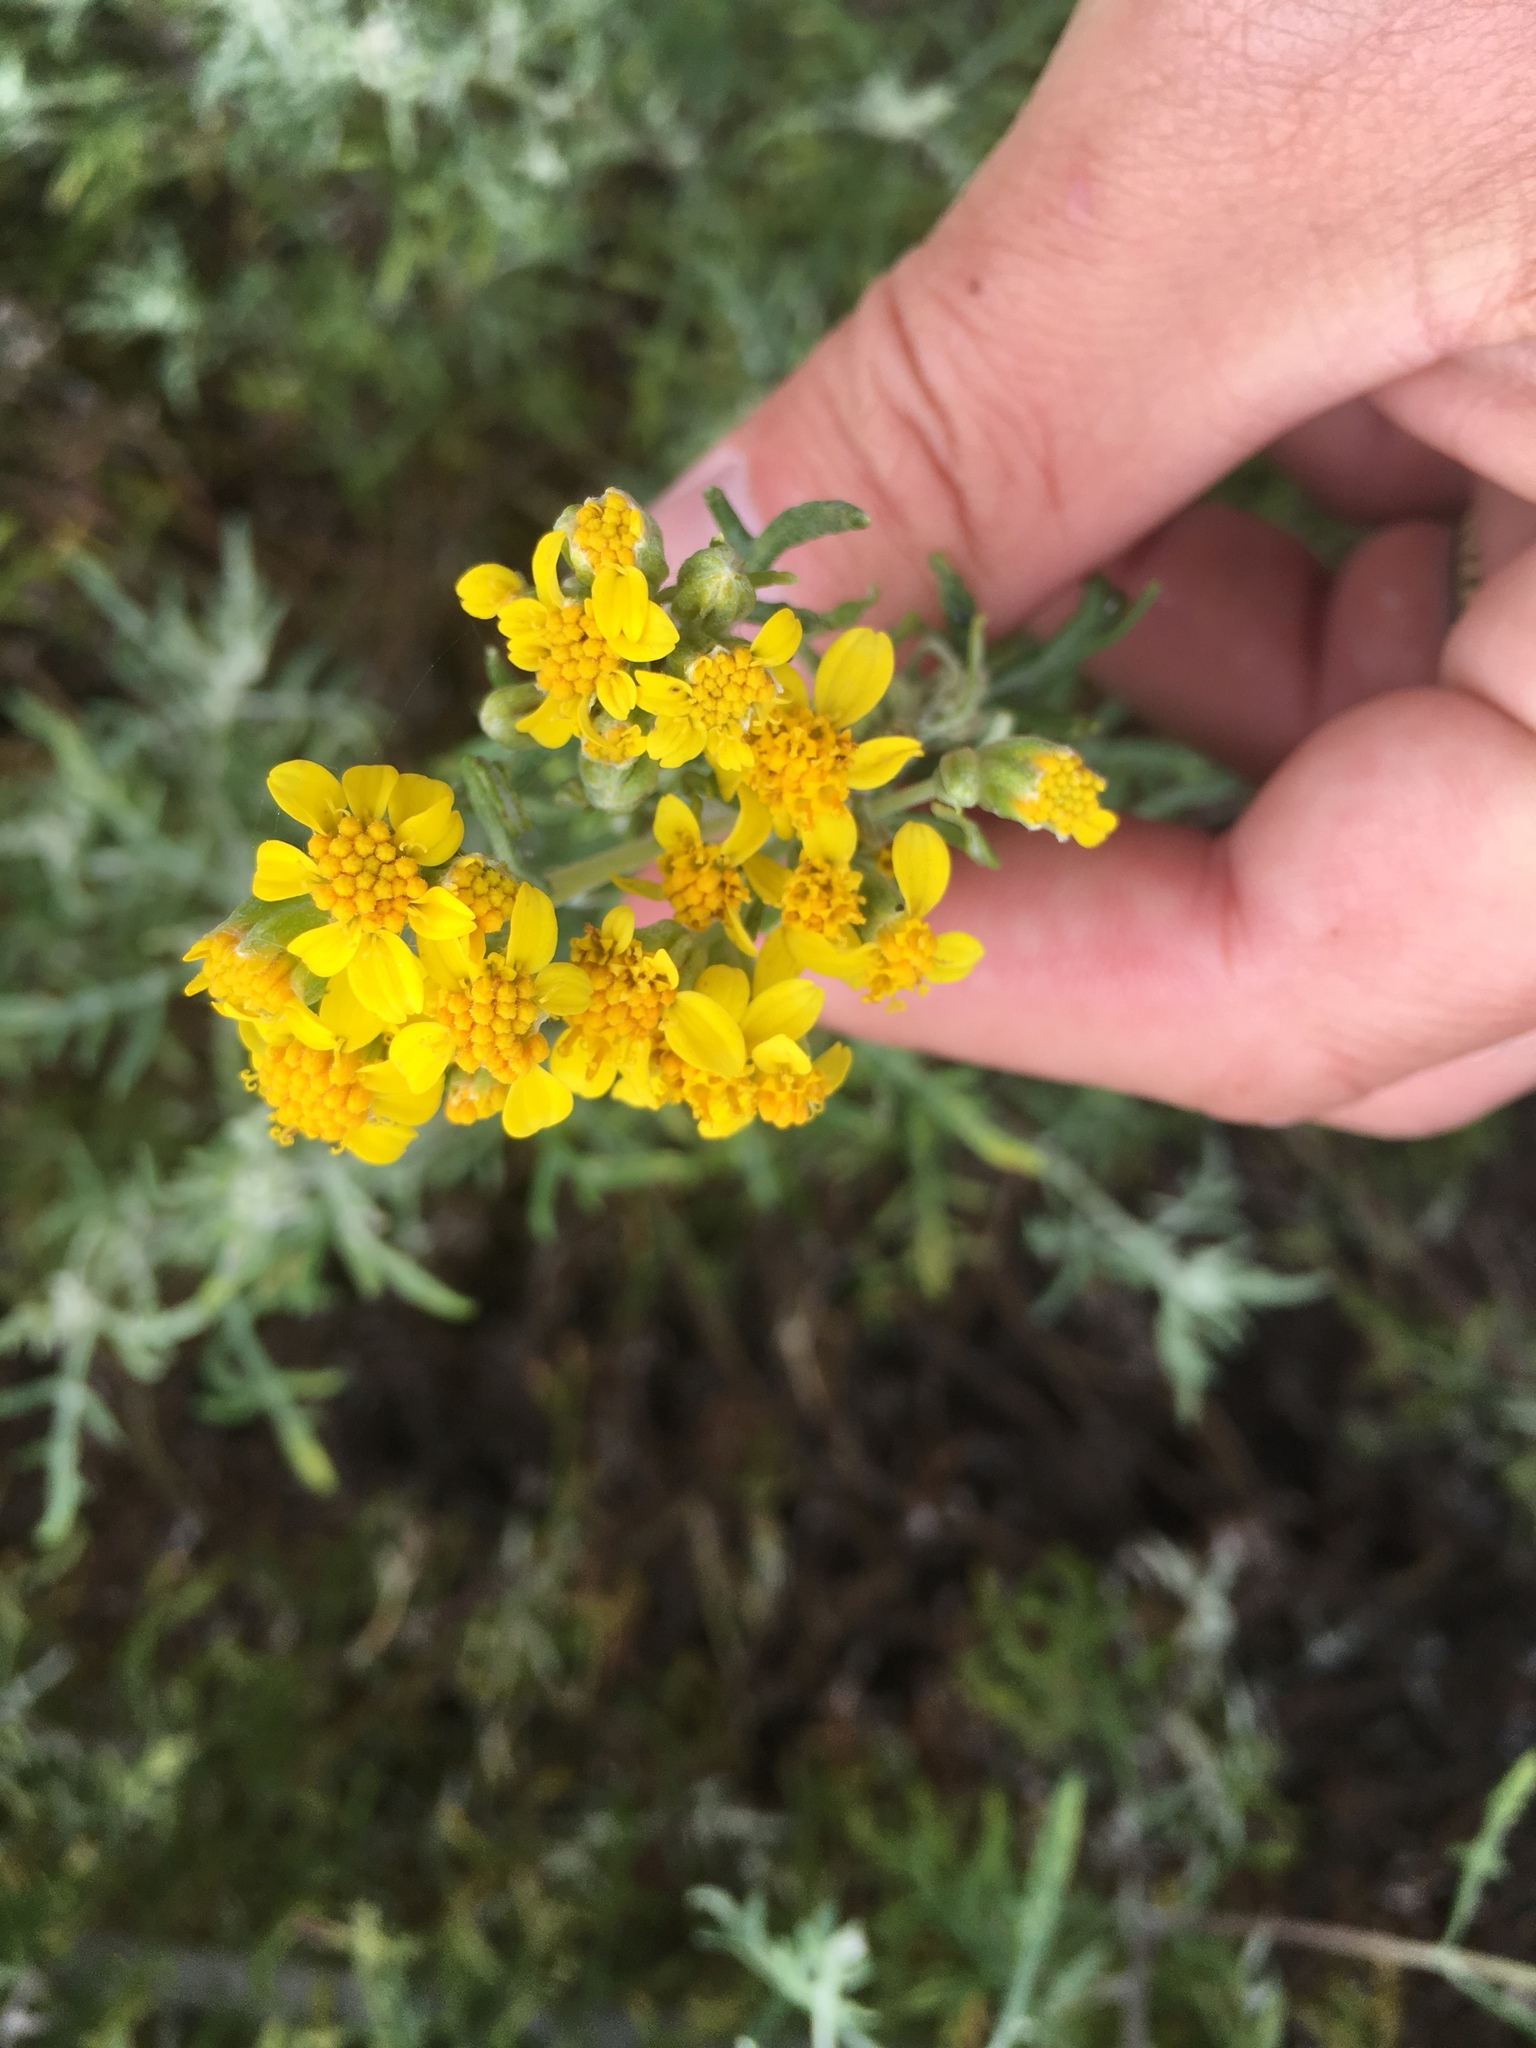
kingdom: Plantae
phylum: Tracheophyta
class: Magnoliopsida
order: Asterales
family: Asteraceae
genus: Eriophyllum
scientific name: Eriophyllum staechadifolium
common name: Lizardtail
